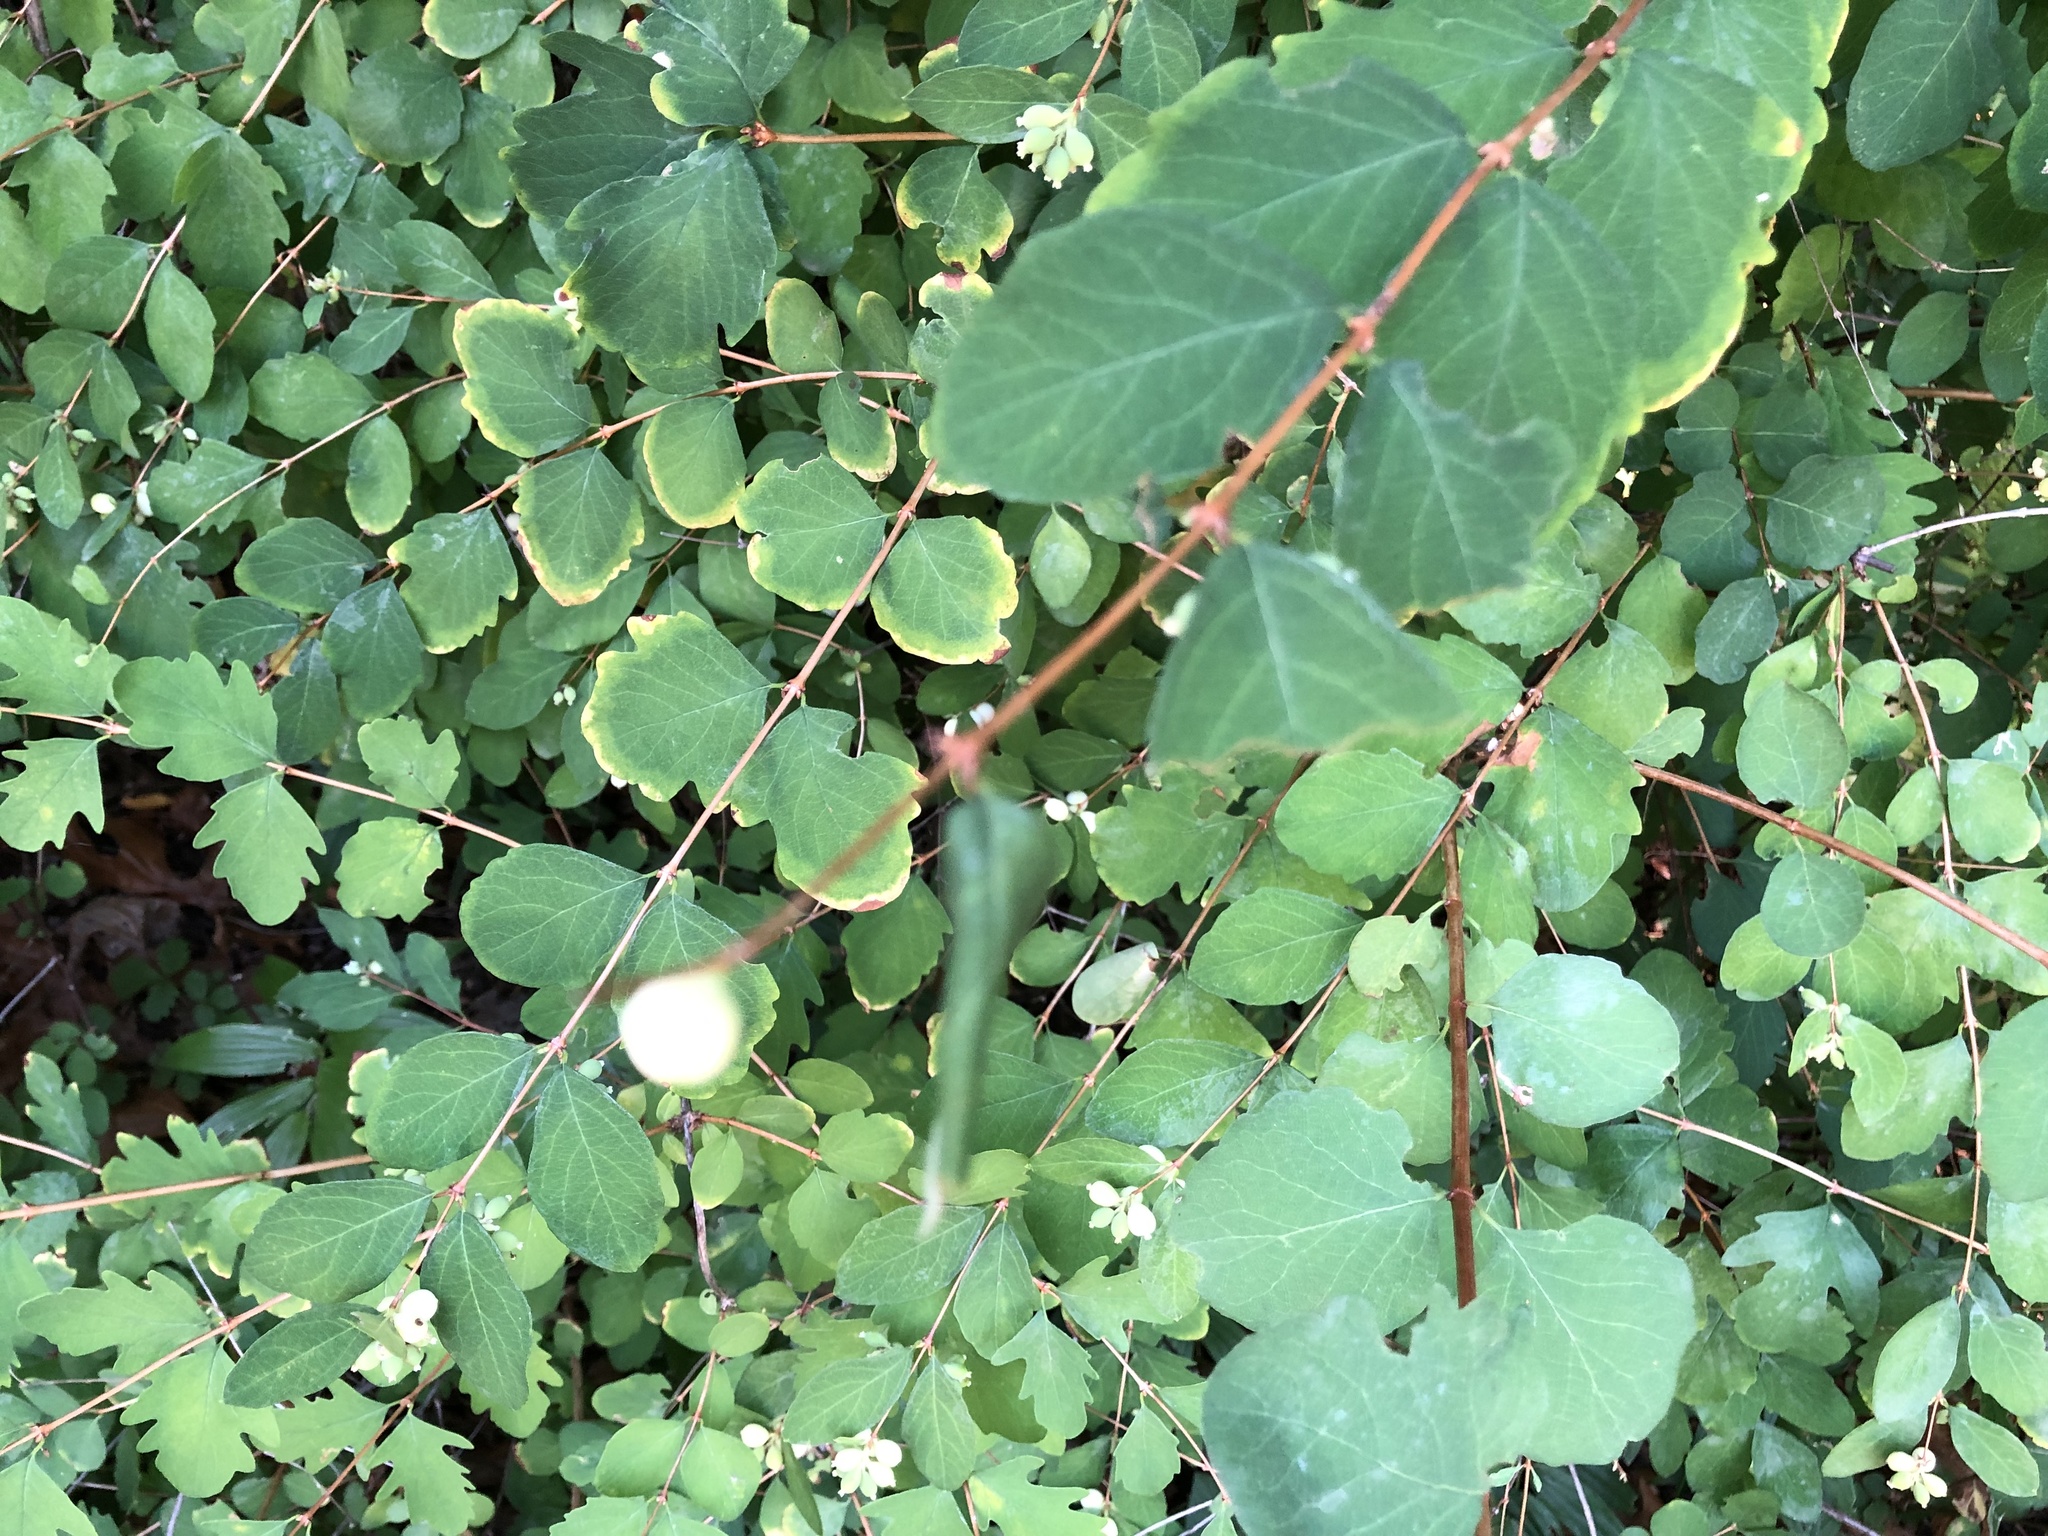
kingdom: Plantae
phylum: Tracheophyta
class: Magnoliopsida
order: Dipsacales
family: Caprifoliaceae
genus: Symphoricarpos
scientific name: Symphoricarpos albus
